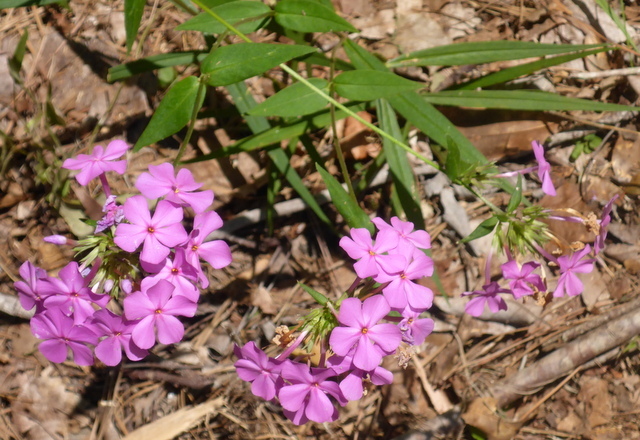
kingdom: Plantae
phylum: Tracheophyta
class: Magnoliopsida
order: Ericales
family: Polemoniaceae
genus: Phlox
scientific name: Phlox carolina
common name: Thick-leaf phlox
